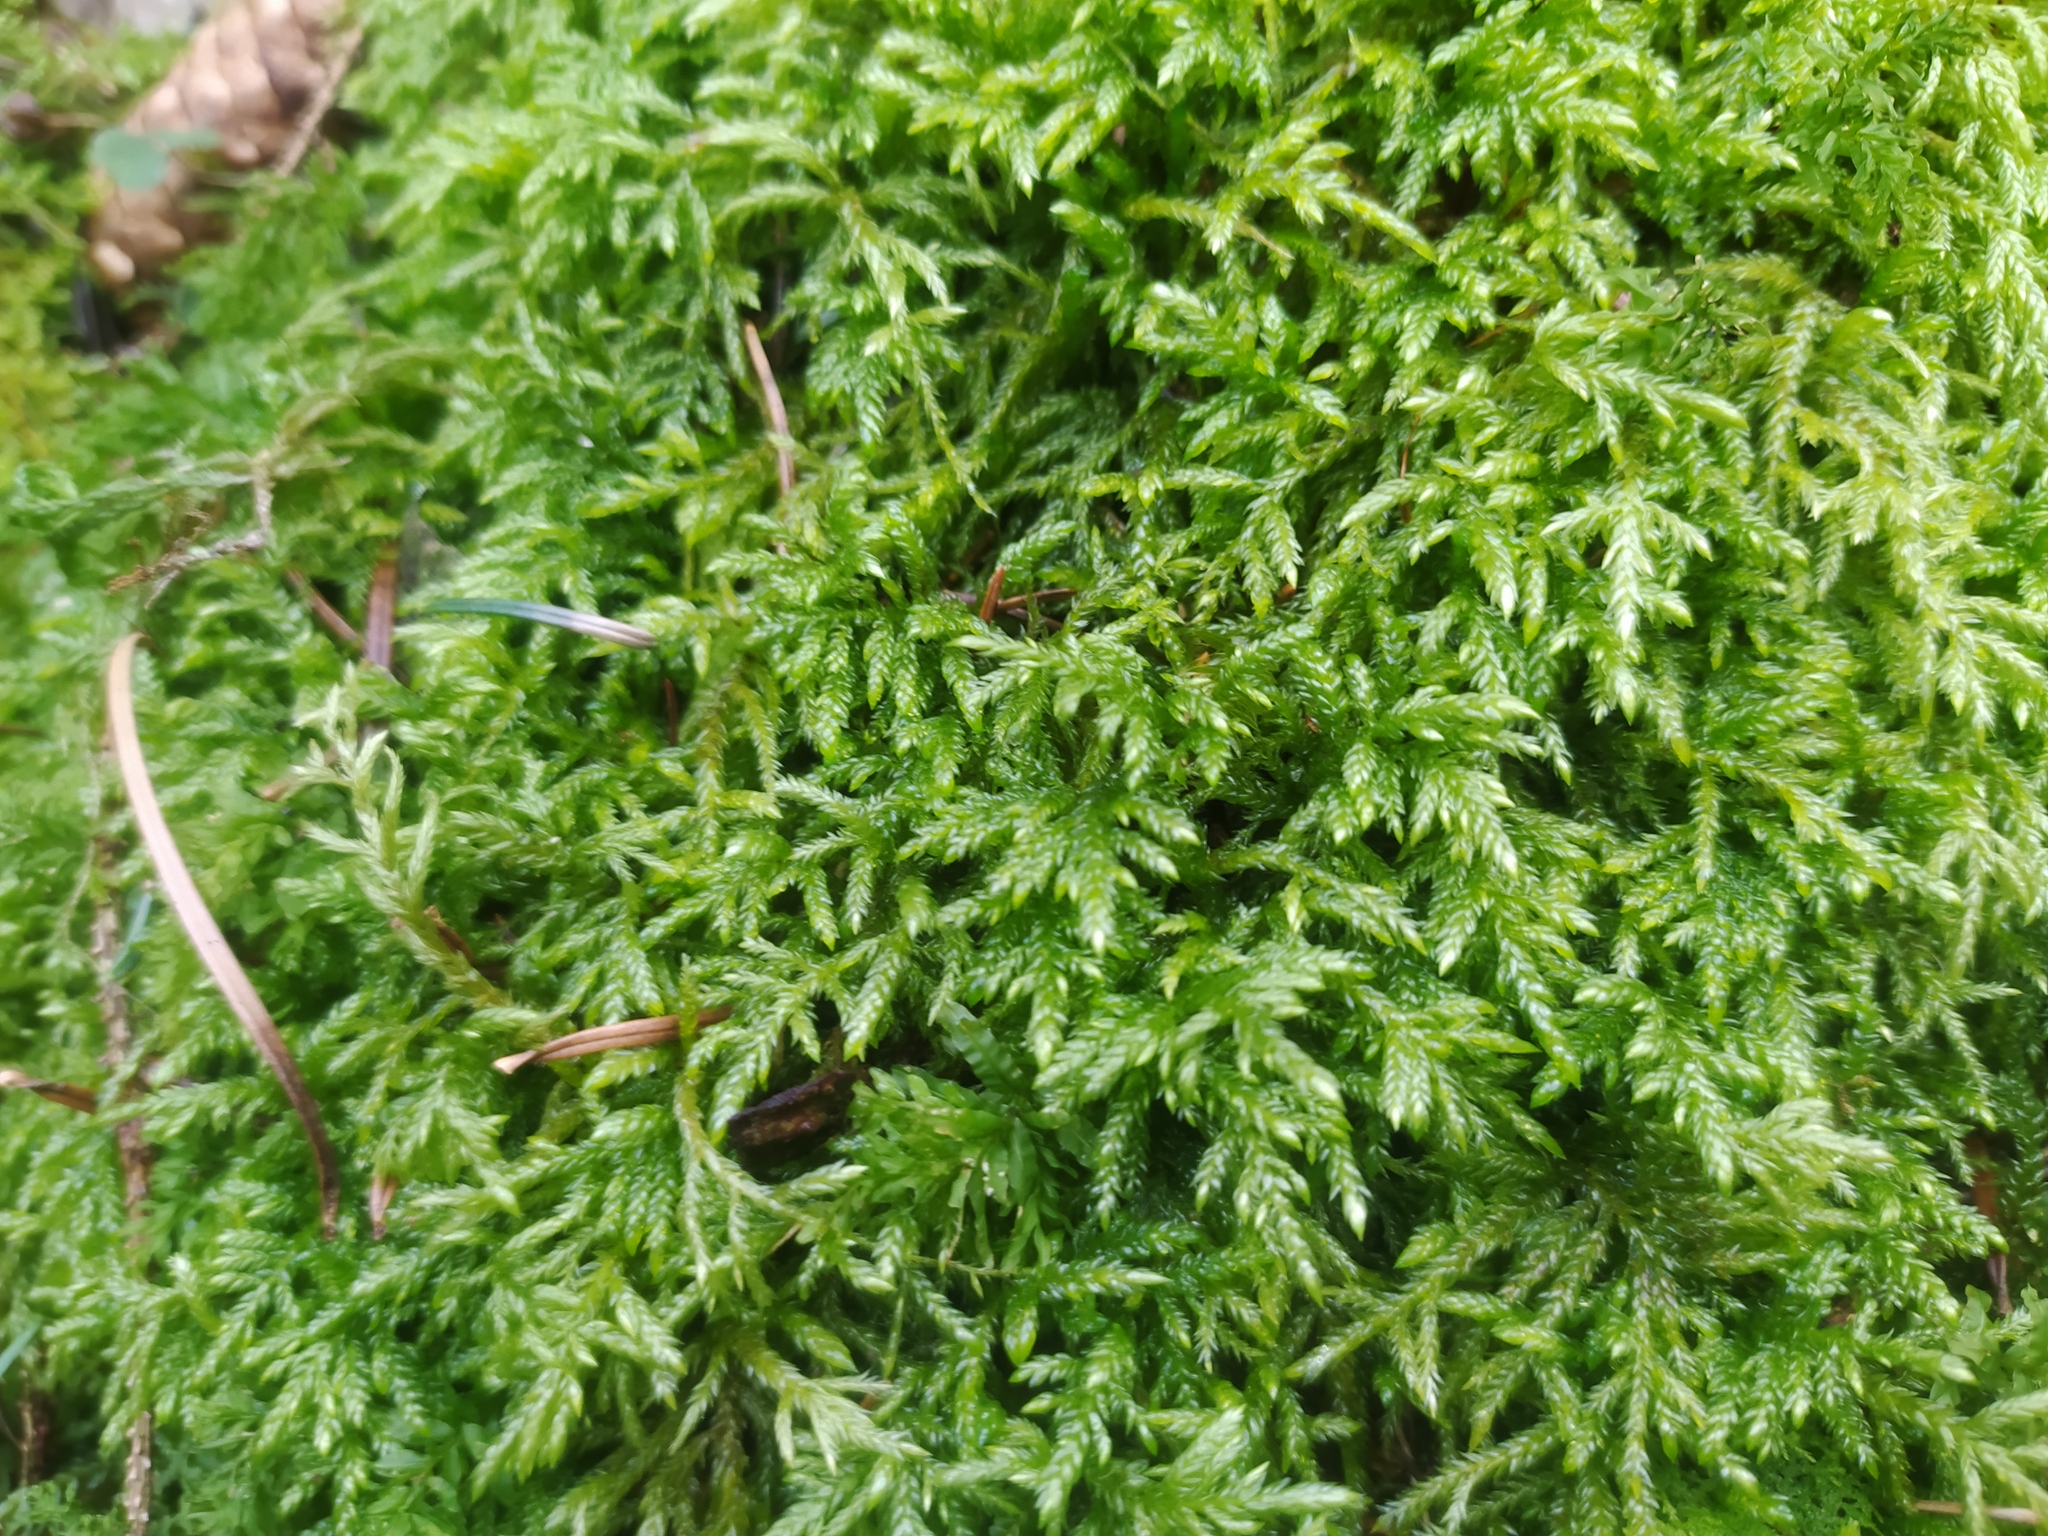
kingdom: Plantae
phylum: Bryophyta
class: Bryopsida
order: Hypnales
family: Lembophyllaceae
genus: Isothecium
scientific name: Isothecium alopecuroides
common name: Larger mouse-tail moss
